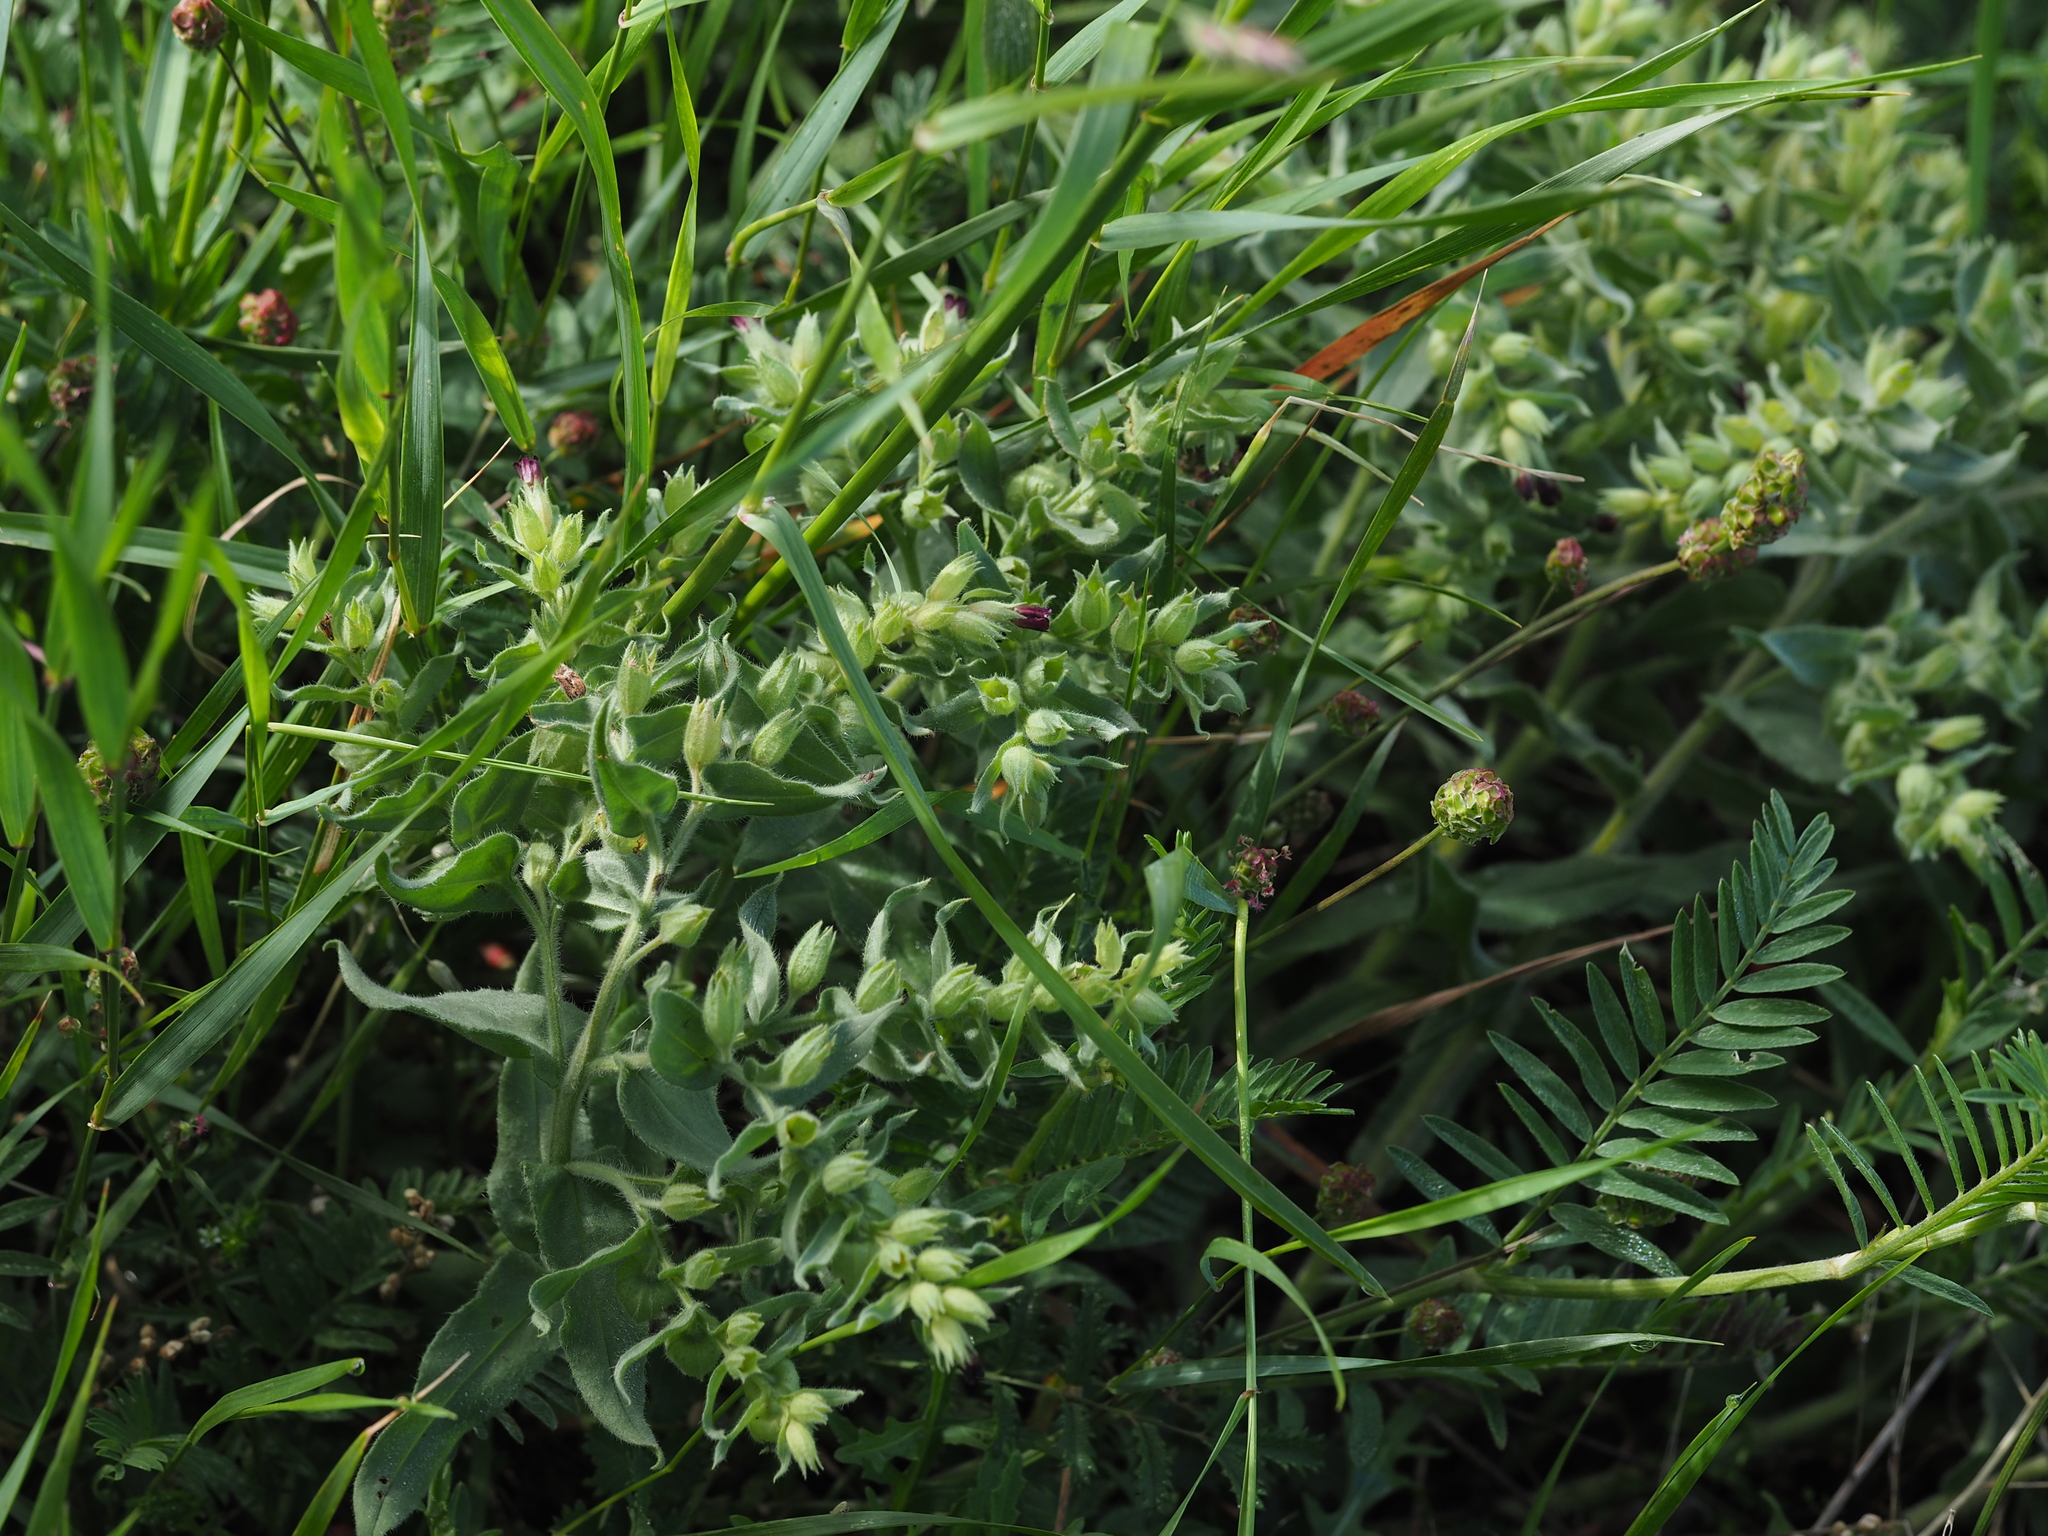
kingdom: Plantae
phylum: Tracheophyta
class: Magnoliopsida
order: Boraginales
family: Boraginaceae
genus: Nonea
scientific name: Nonea pulla
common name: Brown nonea
